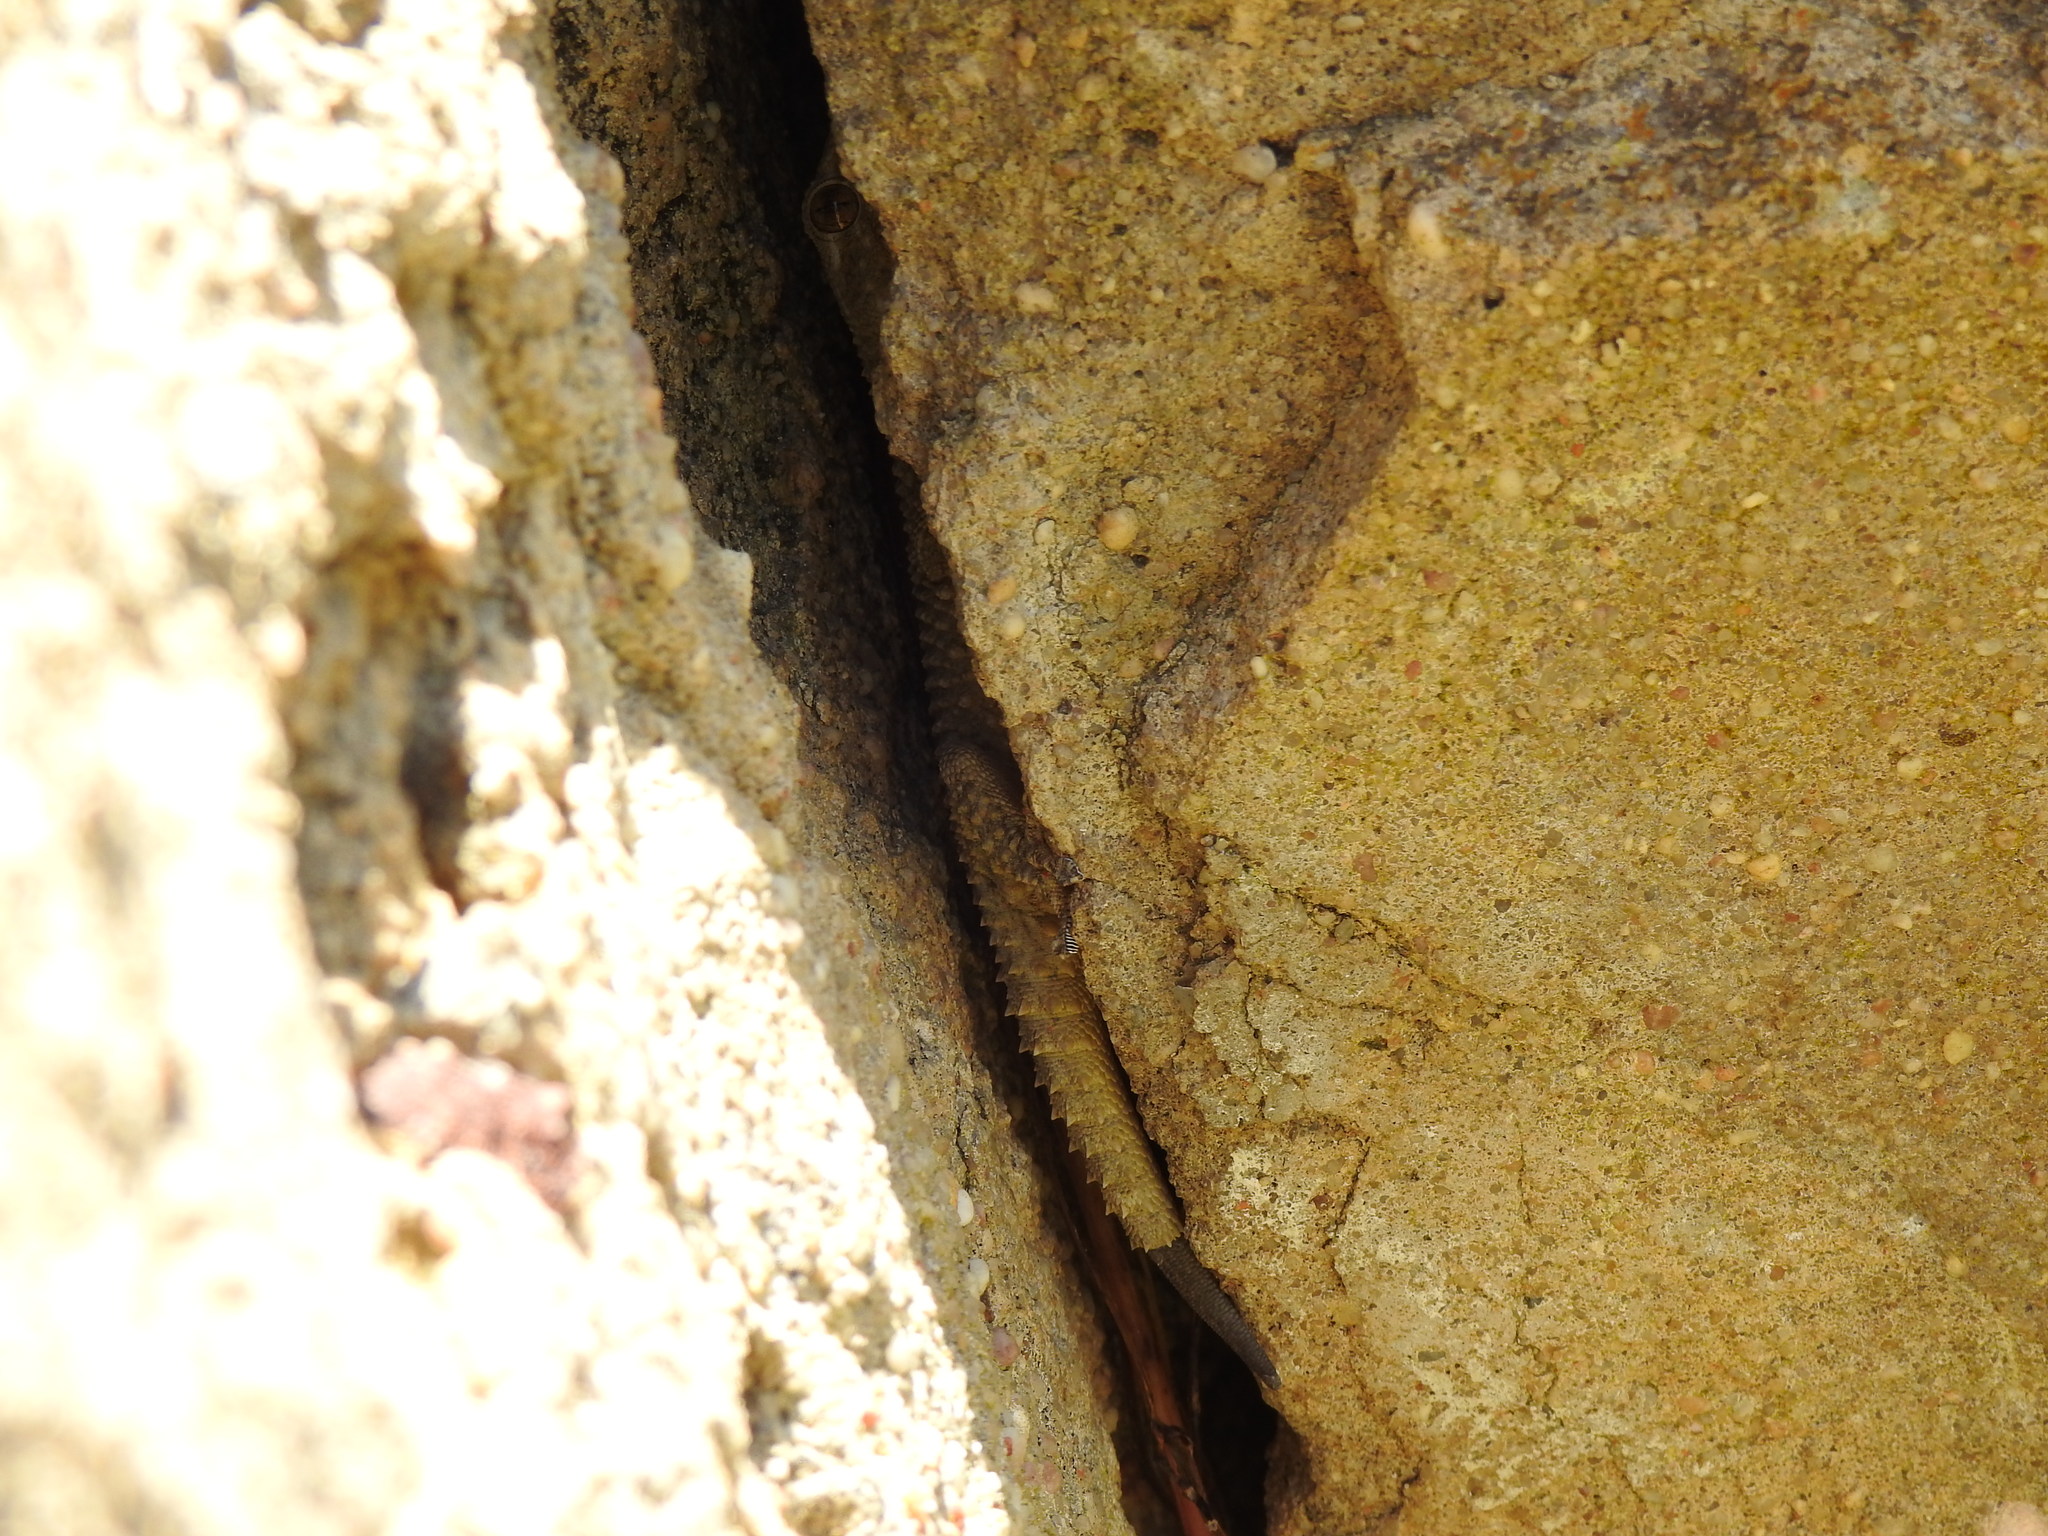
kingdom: Animalia
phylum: Chordata
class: Squamata
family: Phyllodactylidae
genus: Tarentola
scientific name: Tarentola mauritanica
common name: Moorish gecko
